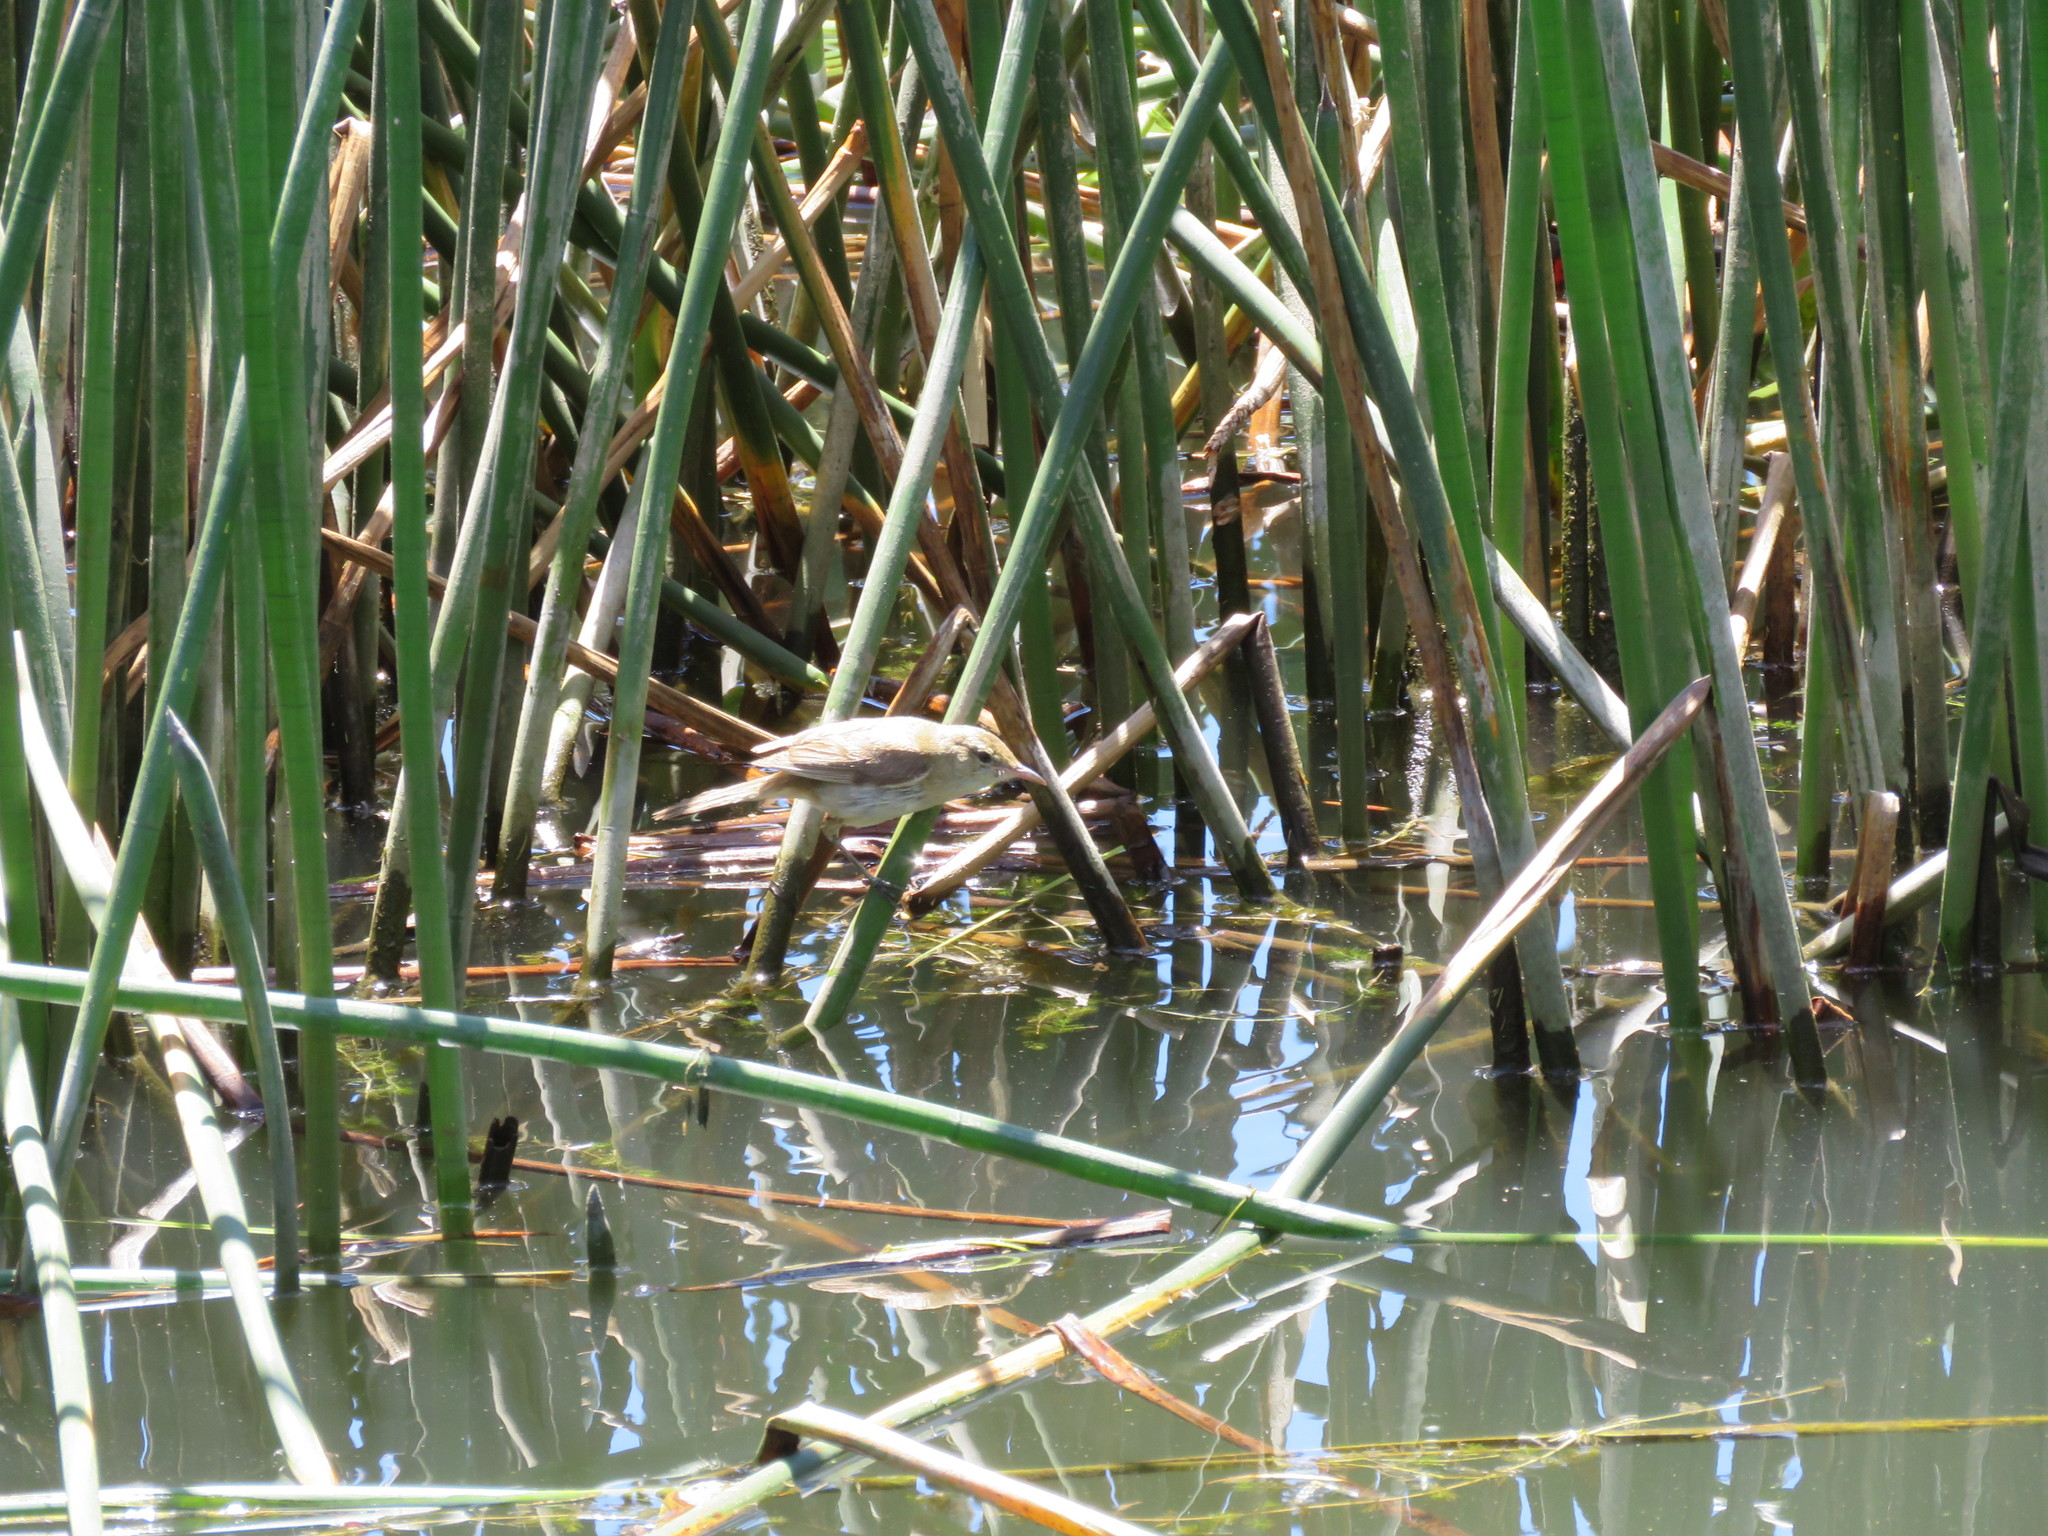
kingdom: Animalia
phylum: Chordata
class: Aves
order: Passeriformes
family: Acrocephalidae
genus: Acrocephalus
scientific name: Acrocephalus australis
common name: Australian reed warbler
